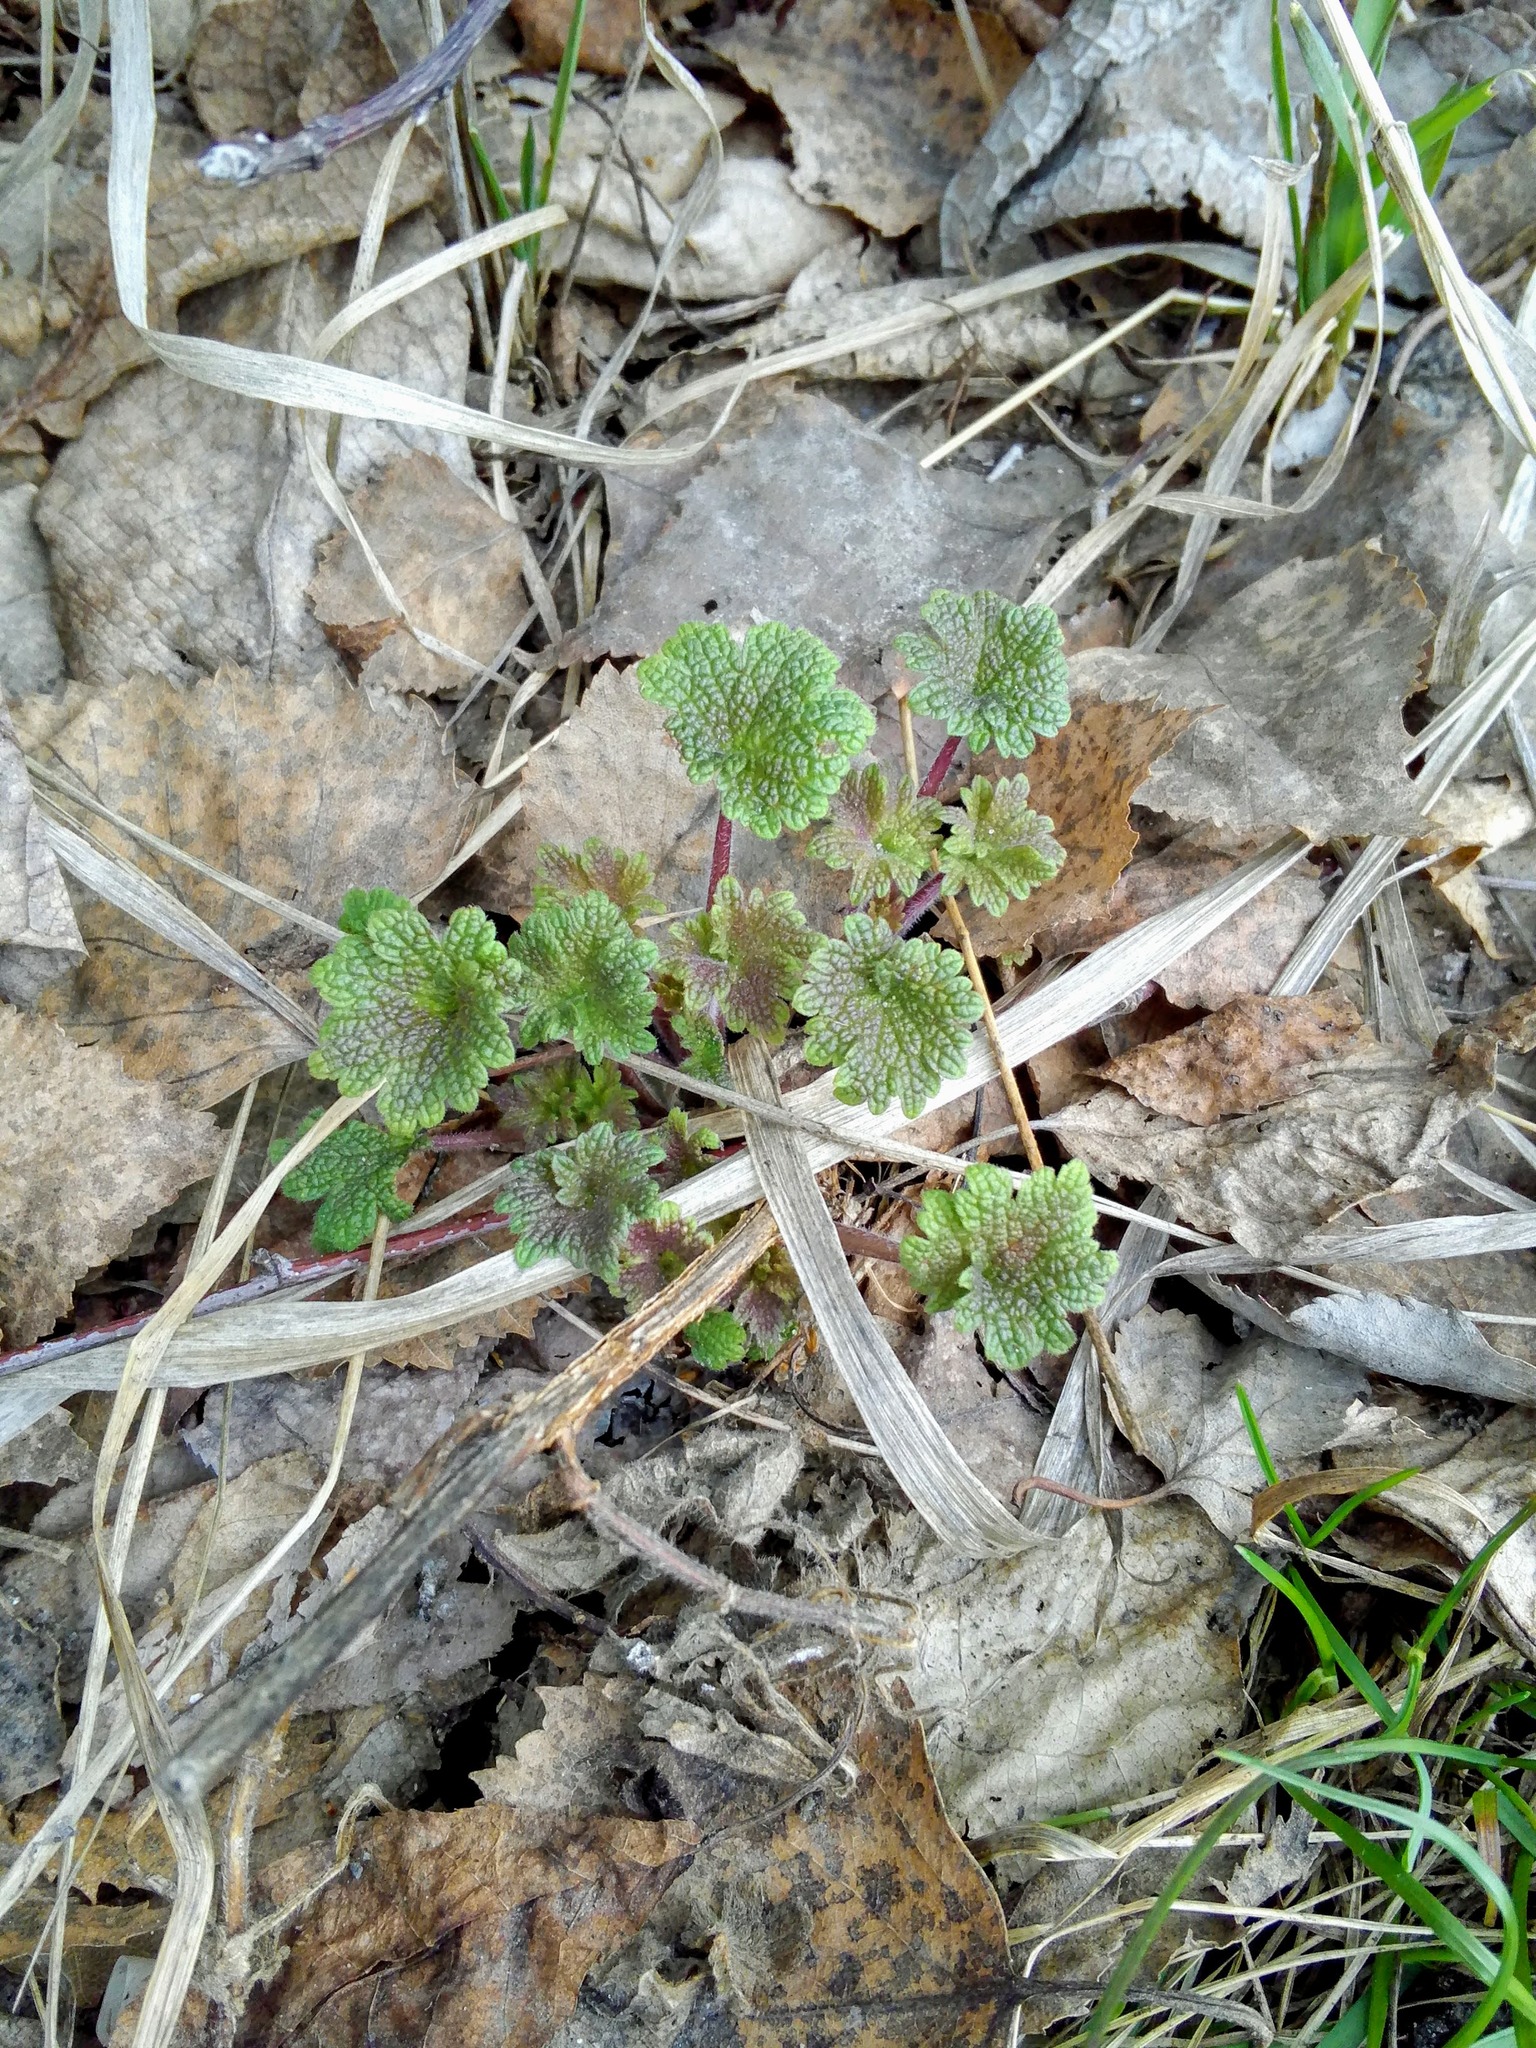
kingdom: Plantae
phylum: Tracheophyta
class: Magnoliopsida
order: Lamiales
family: Lamiaceae
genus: Leonurus
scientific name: Leonurus quinquelobatus
